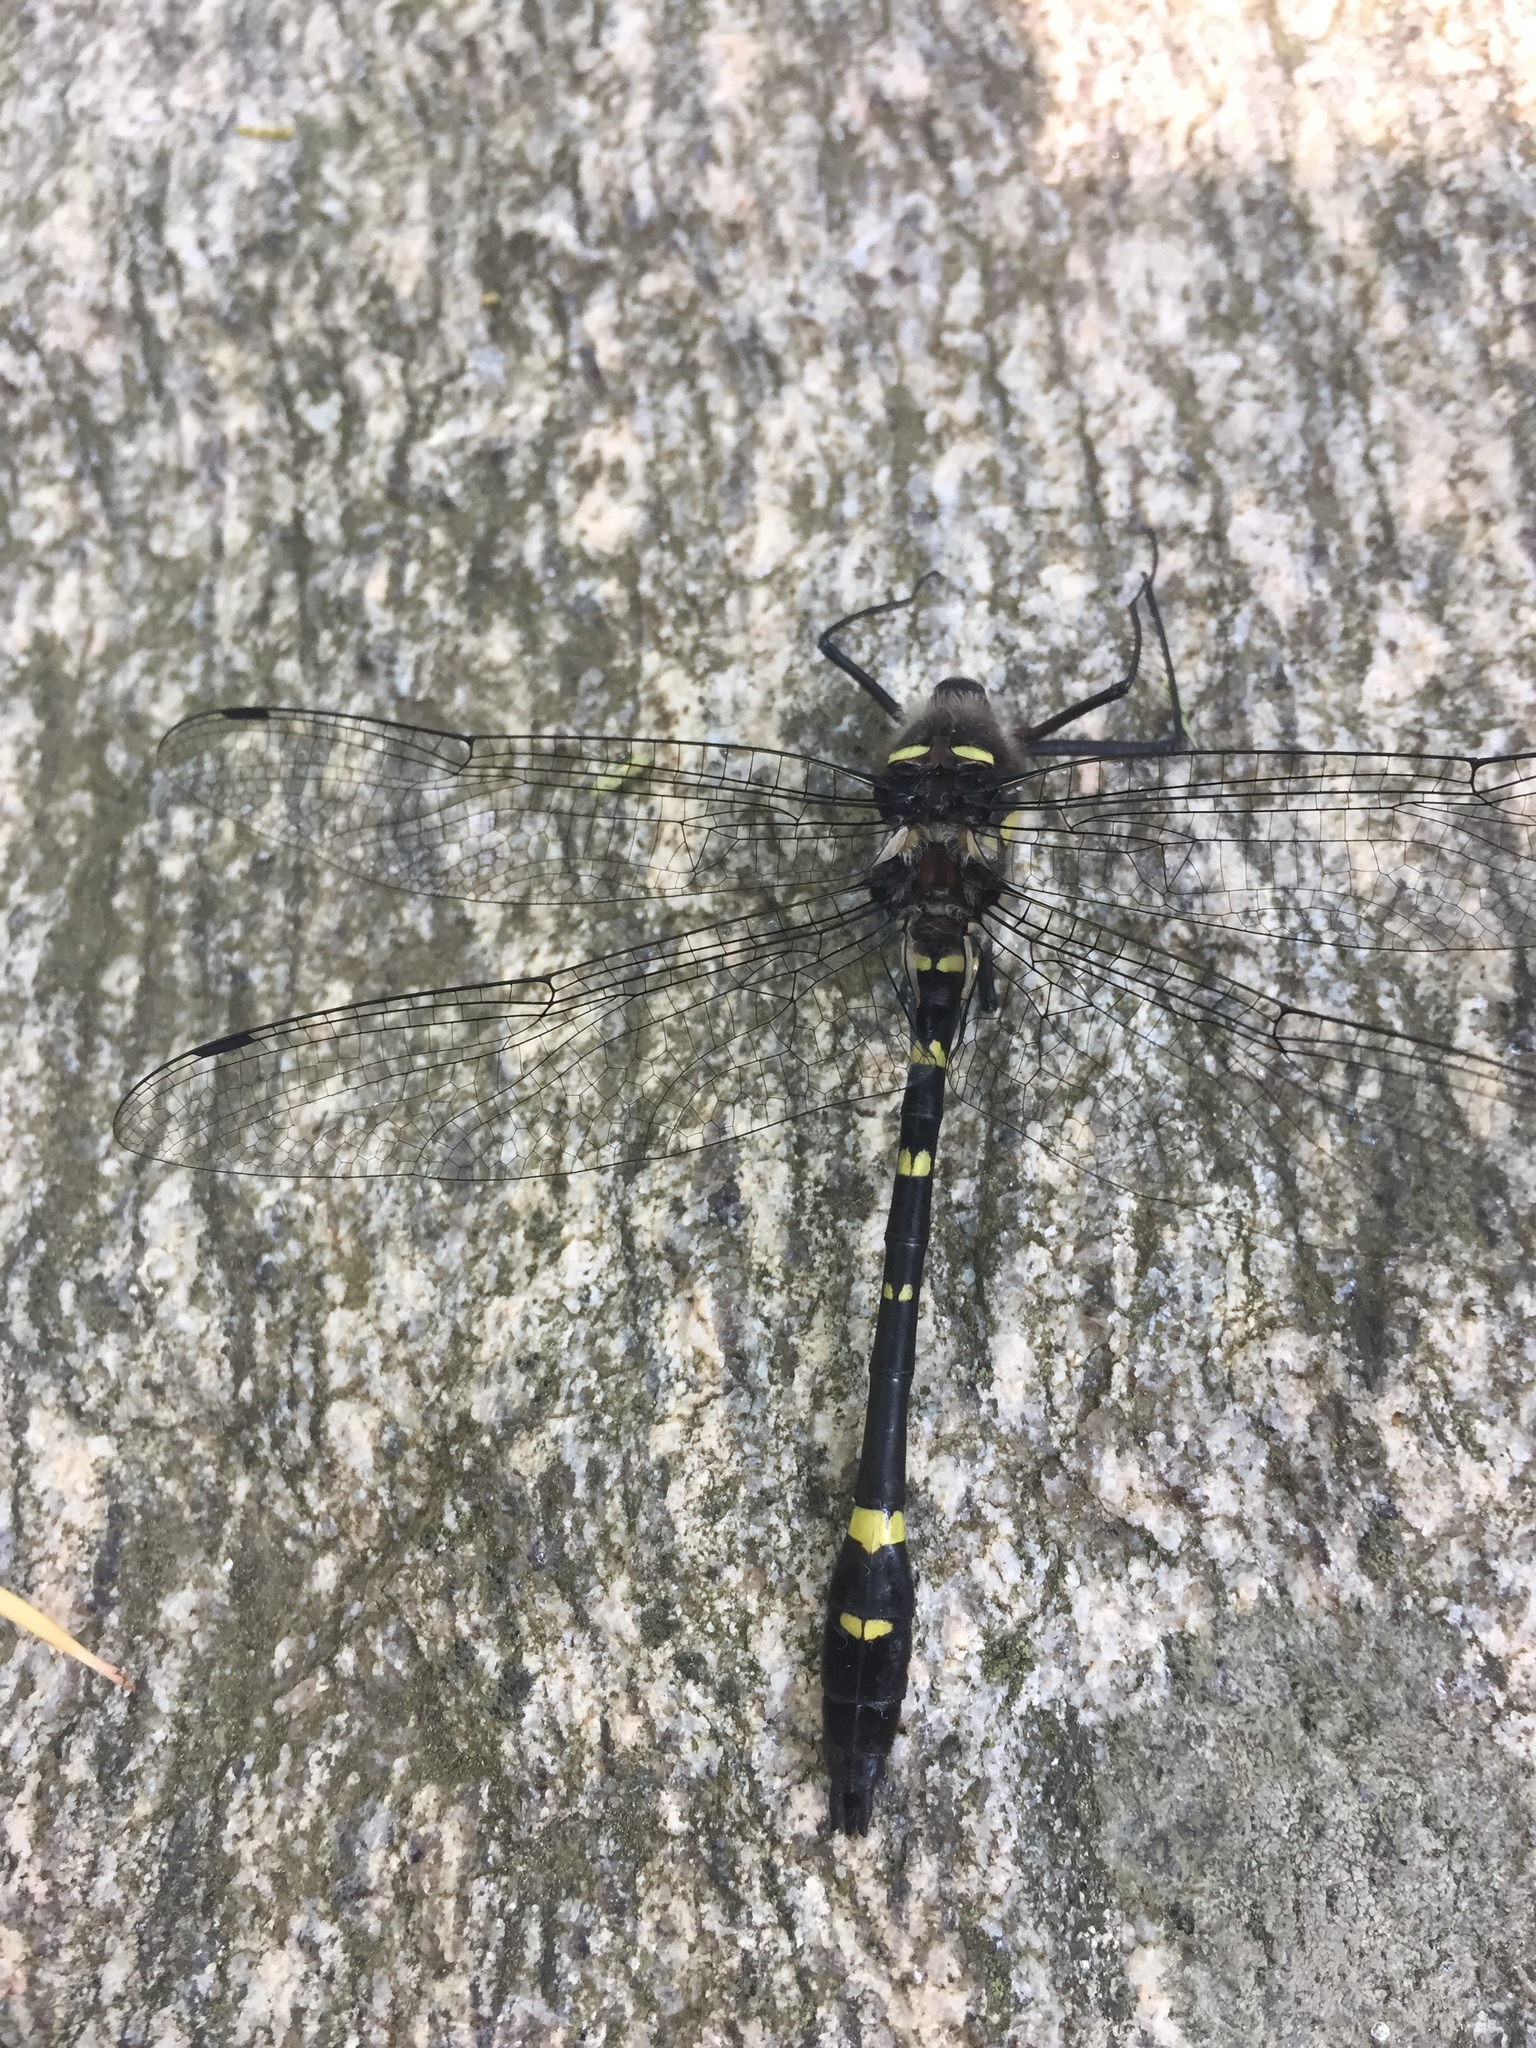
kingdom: Animalia
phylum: Arthropoda
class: Insecta
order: Odonata
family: Macromiidae
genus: Macromia
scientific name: Macromia alleghaniensis
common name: Allegheny river cruiser
